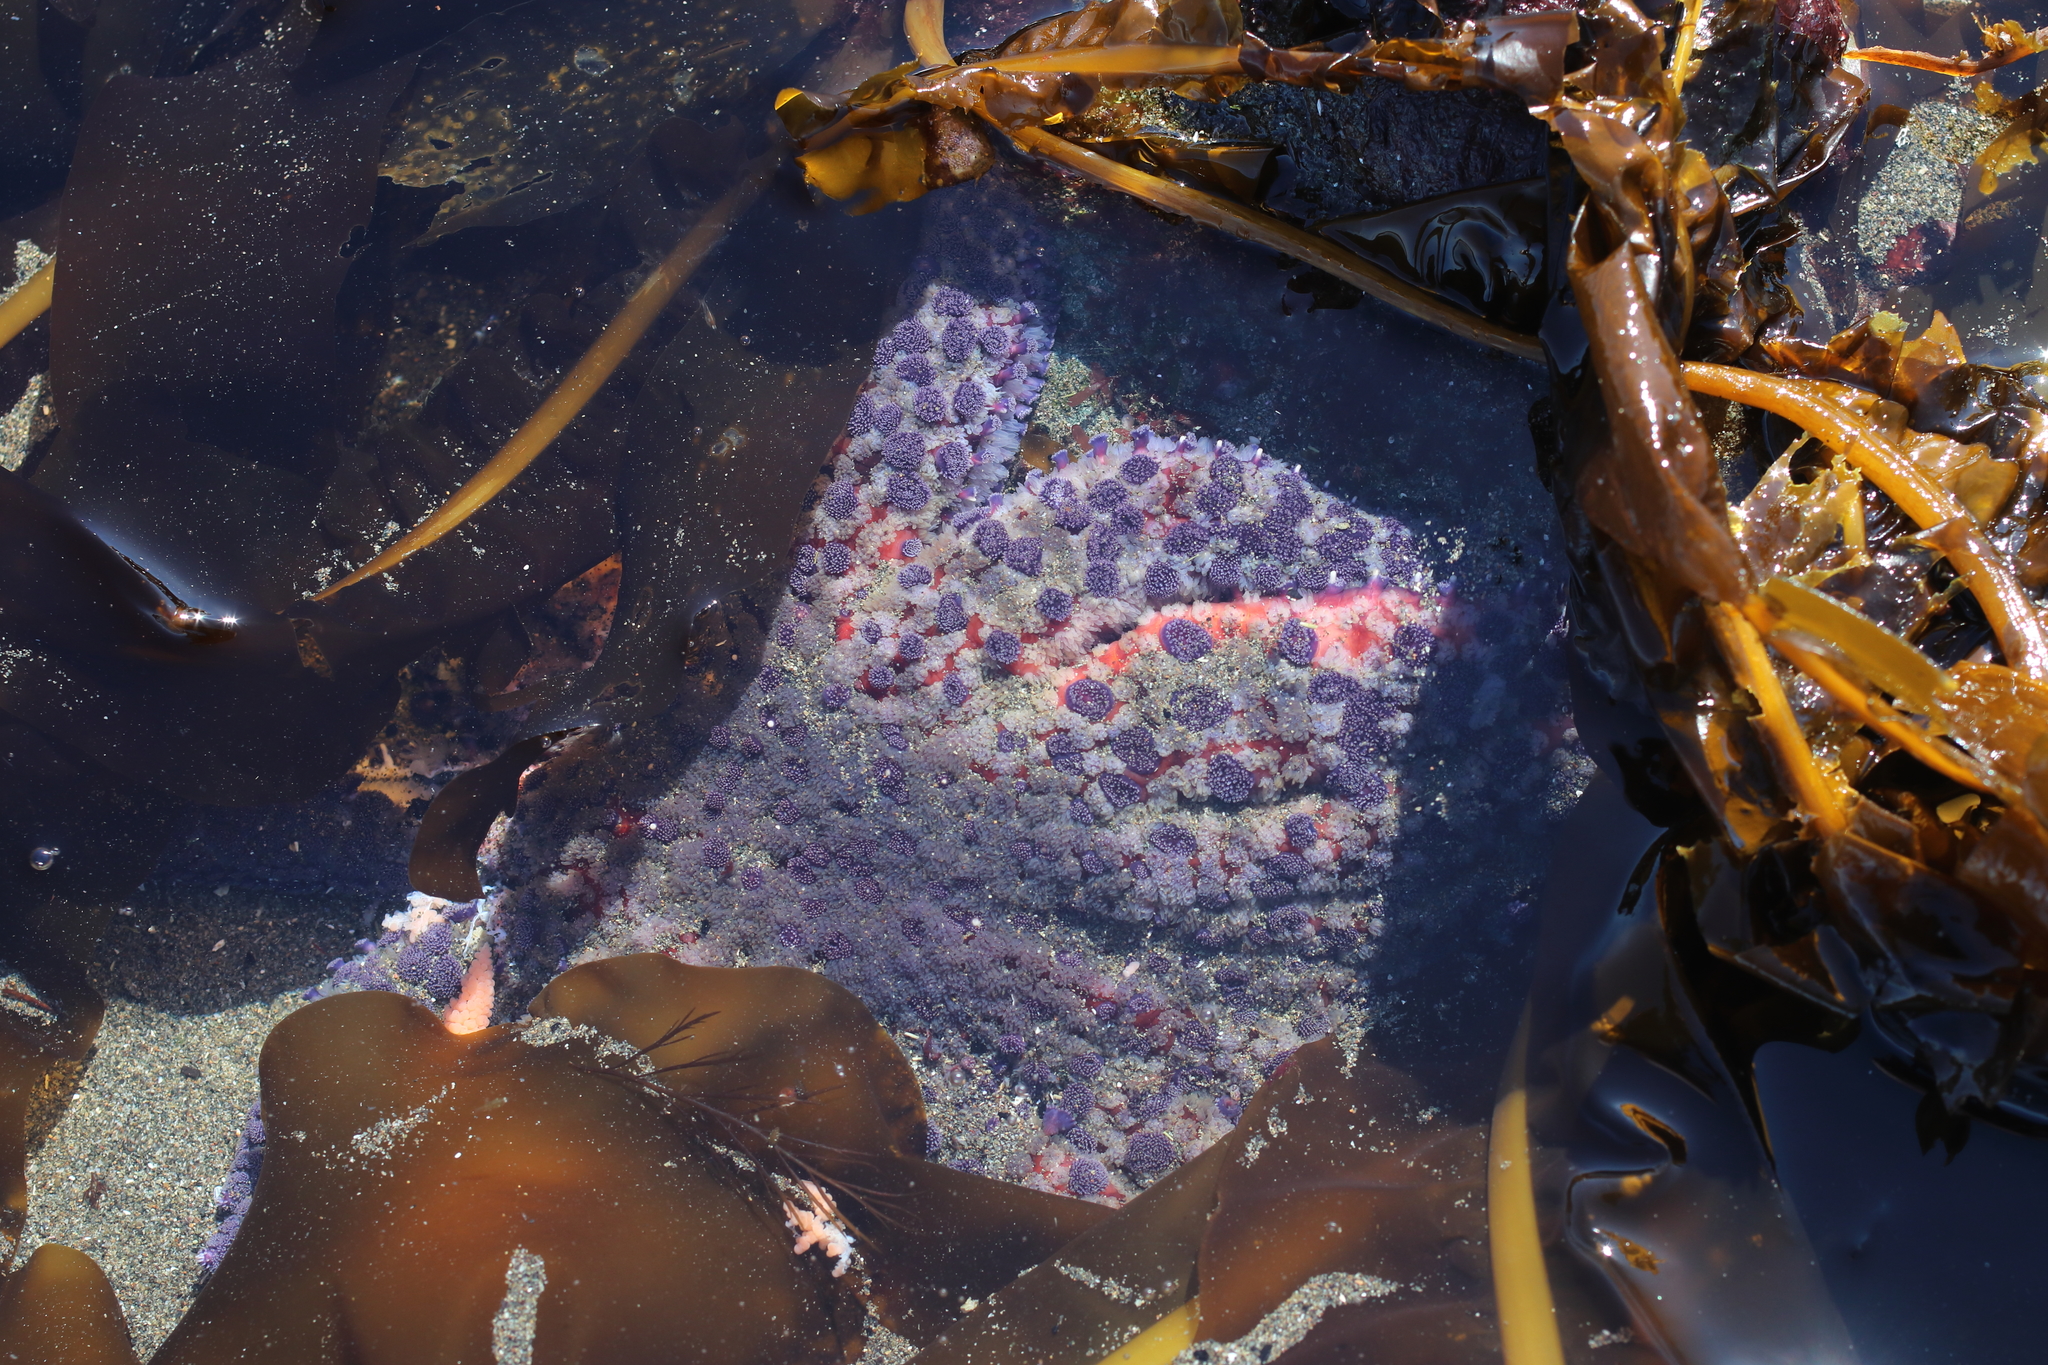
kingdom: Animalia
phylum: Echinodermata
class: Asteroidea
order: Forcipulatida
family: Asteriidae
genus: Pycnopodia
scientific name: Pycnopodia helianthoides
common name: Rag mop
